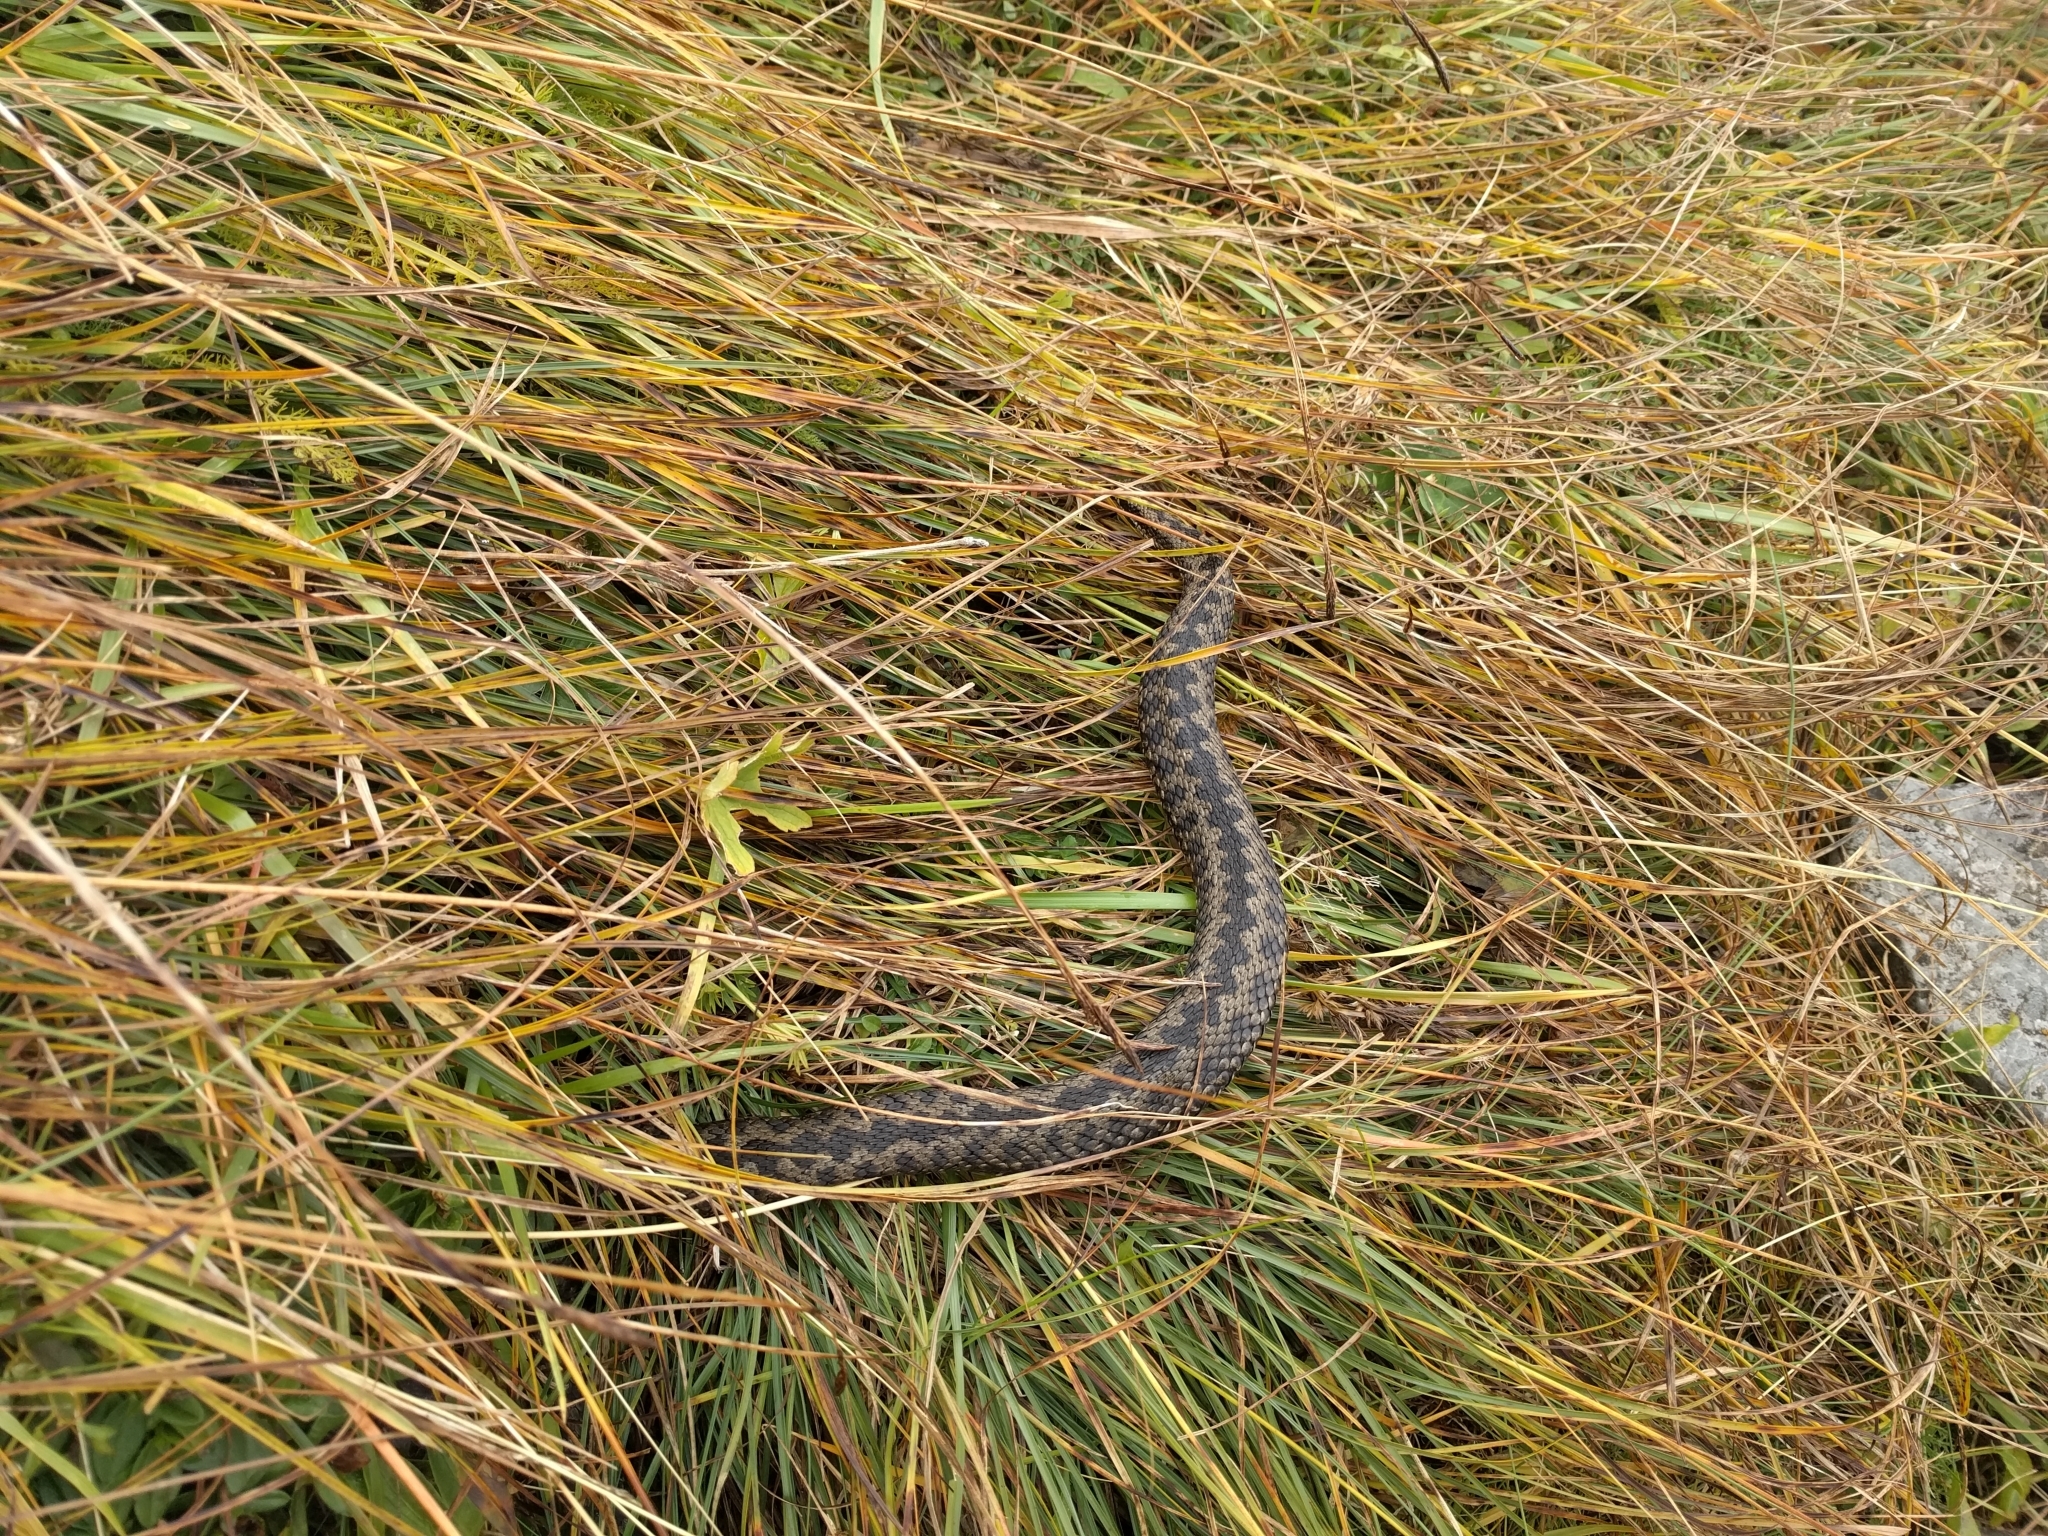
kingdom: Animalia
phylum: Chordata
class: Squamata
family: Viperidae
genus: Vipera
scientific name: Vipera berus
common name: Adder
